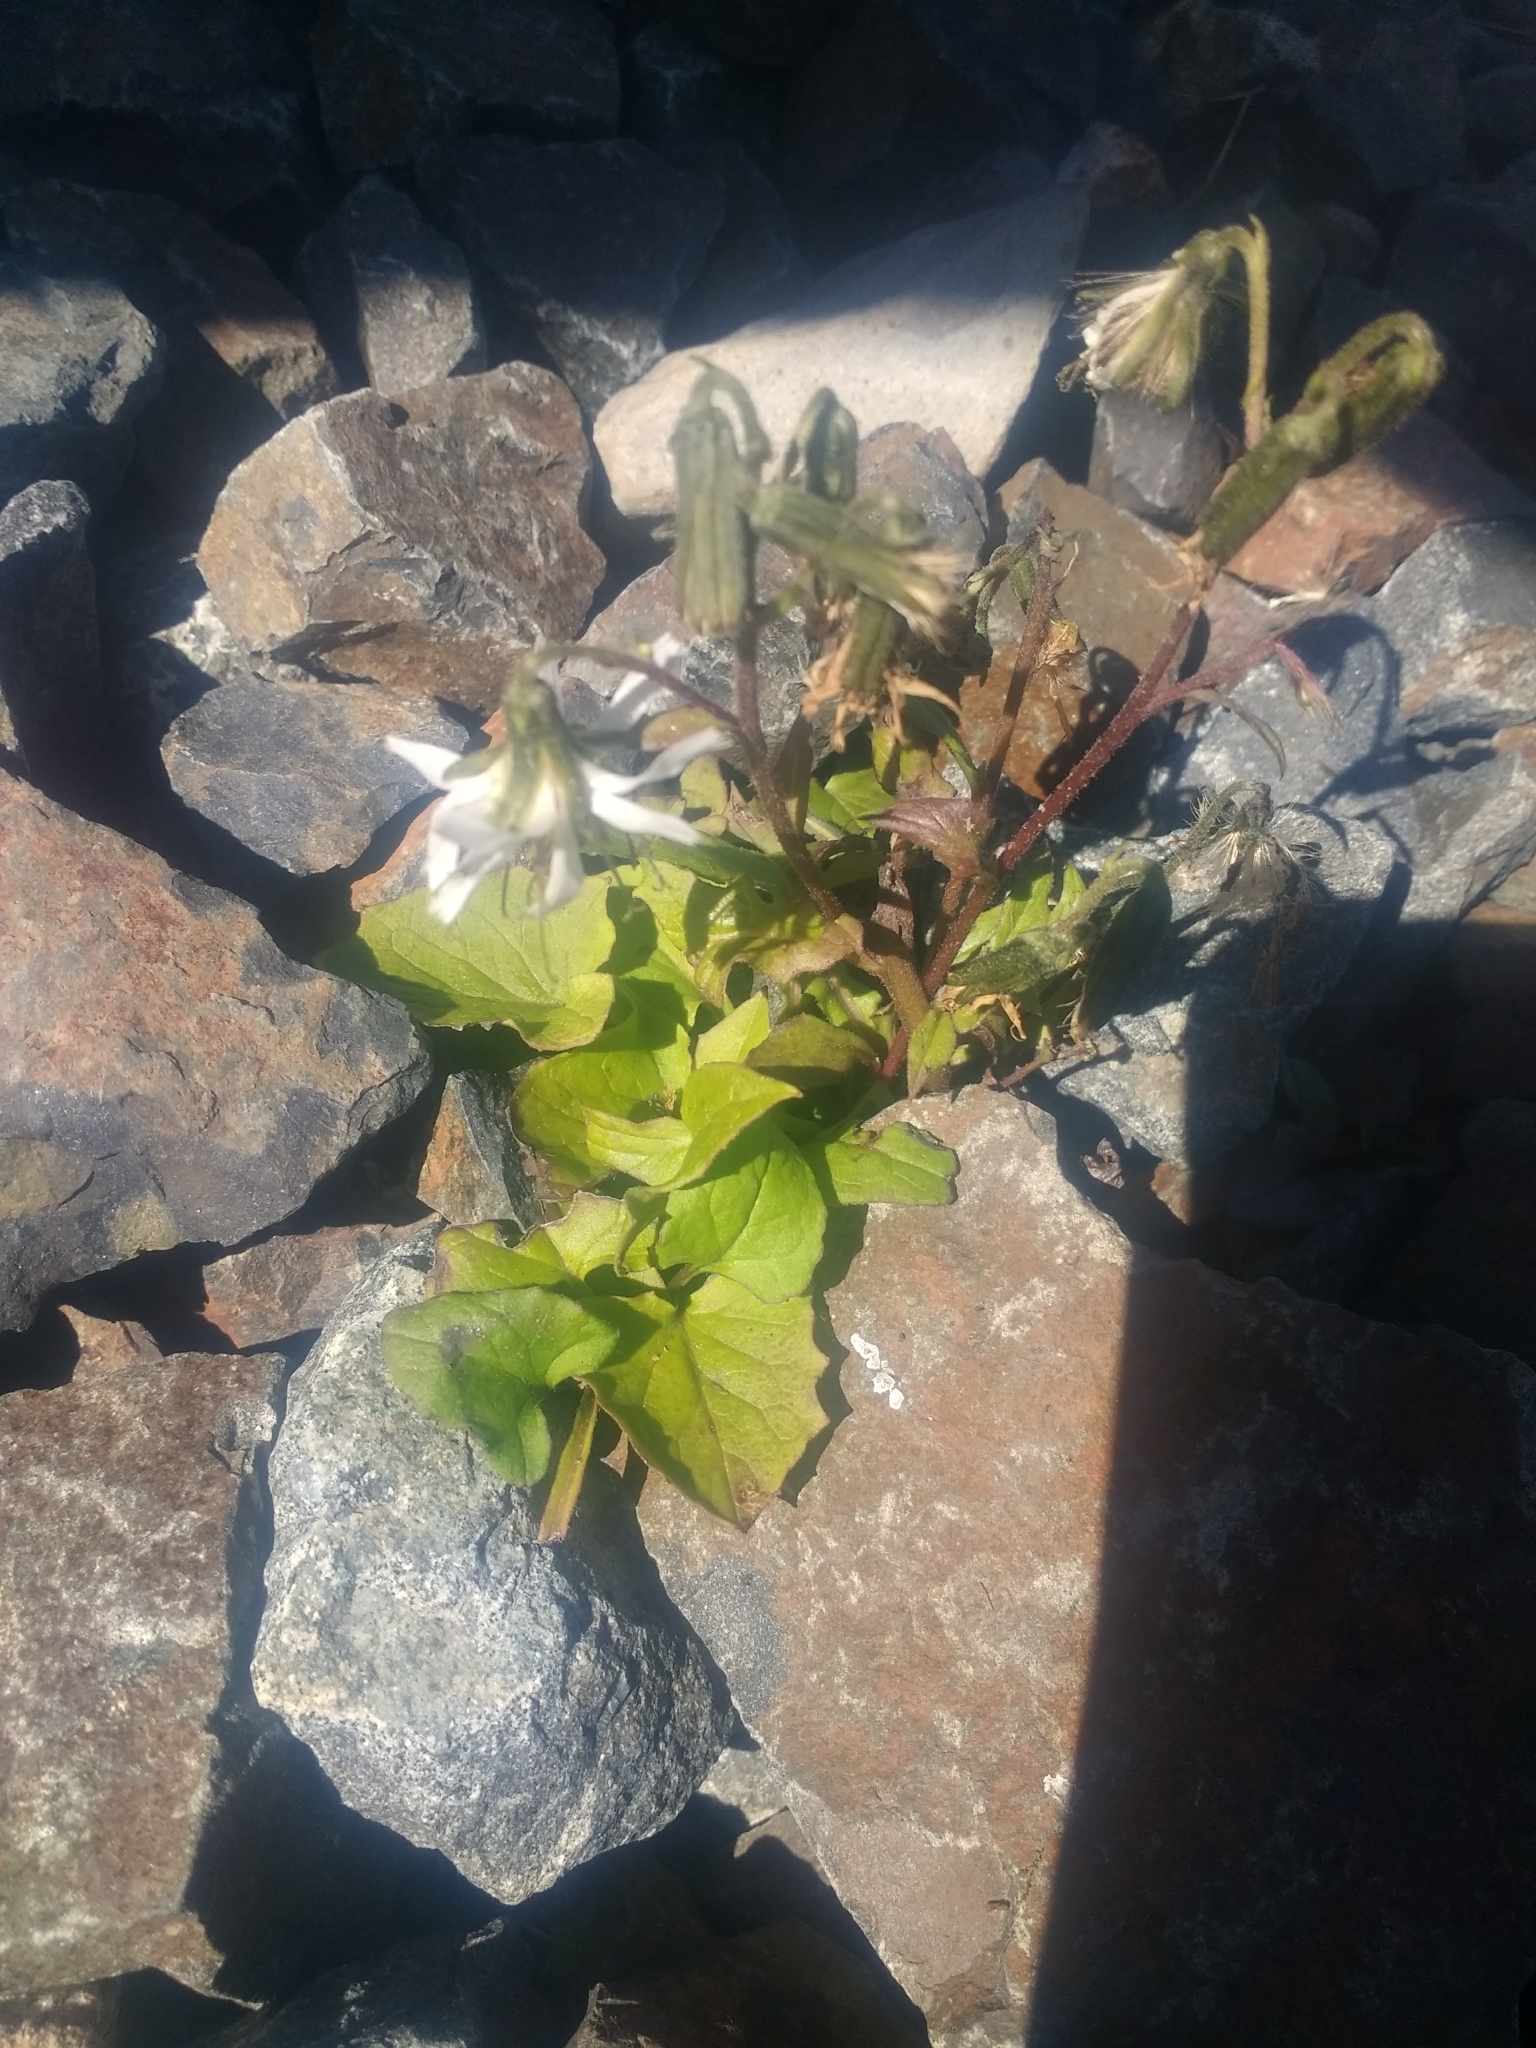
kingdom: Plantae
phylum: Tracheophyta
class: Magnoliopsida
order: Asterales
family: Asteraceae
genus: Nabalus
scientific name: Nabalus hastatus
